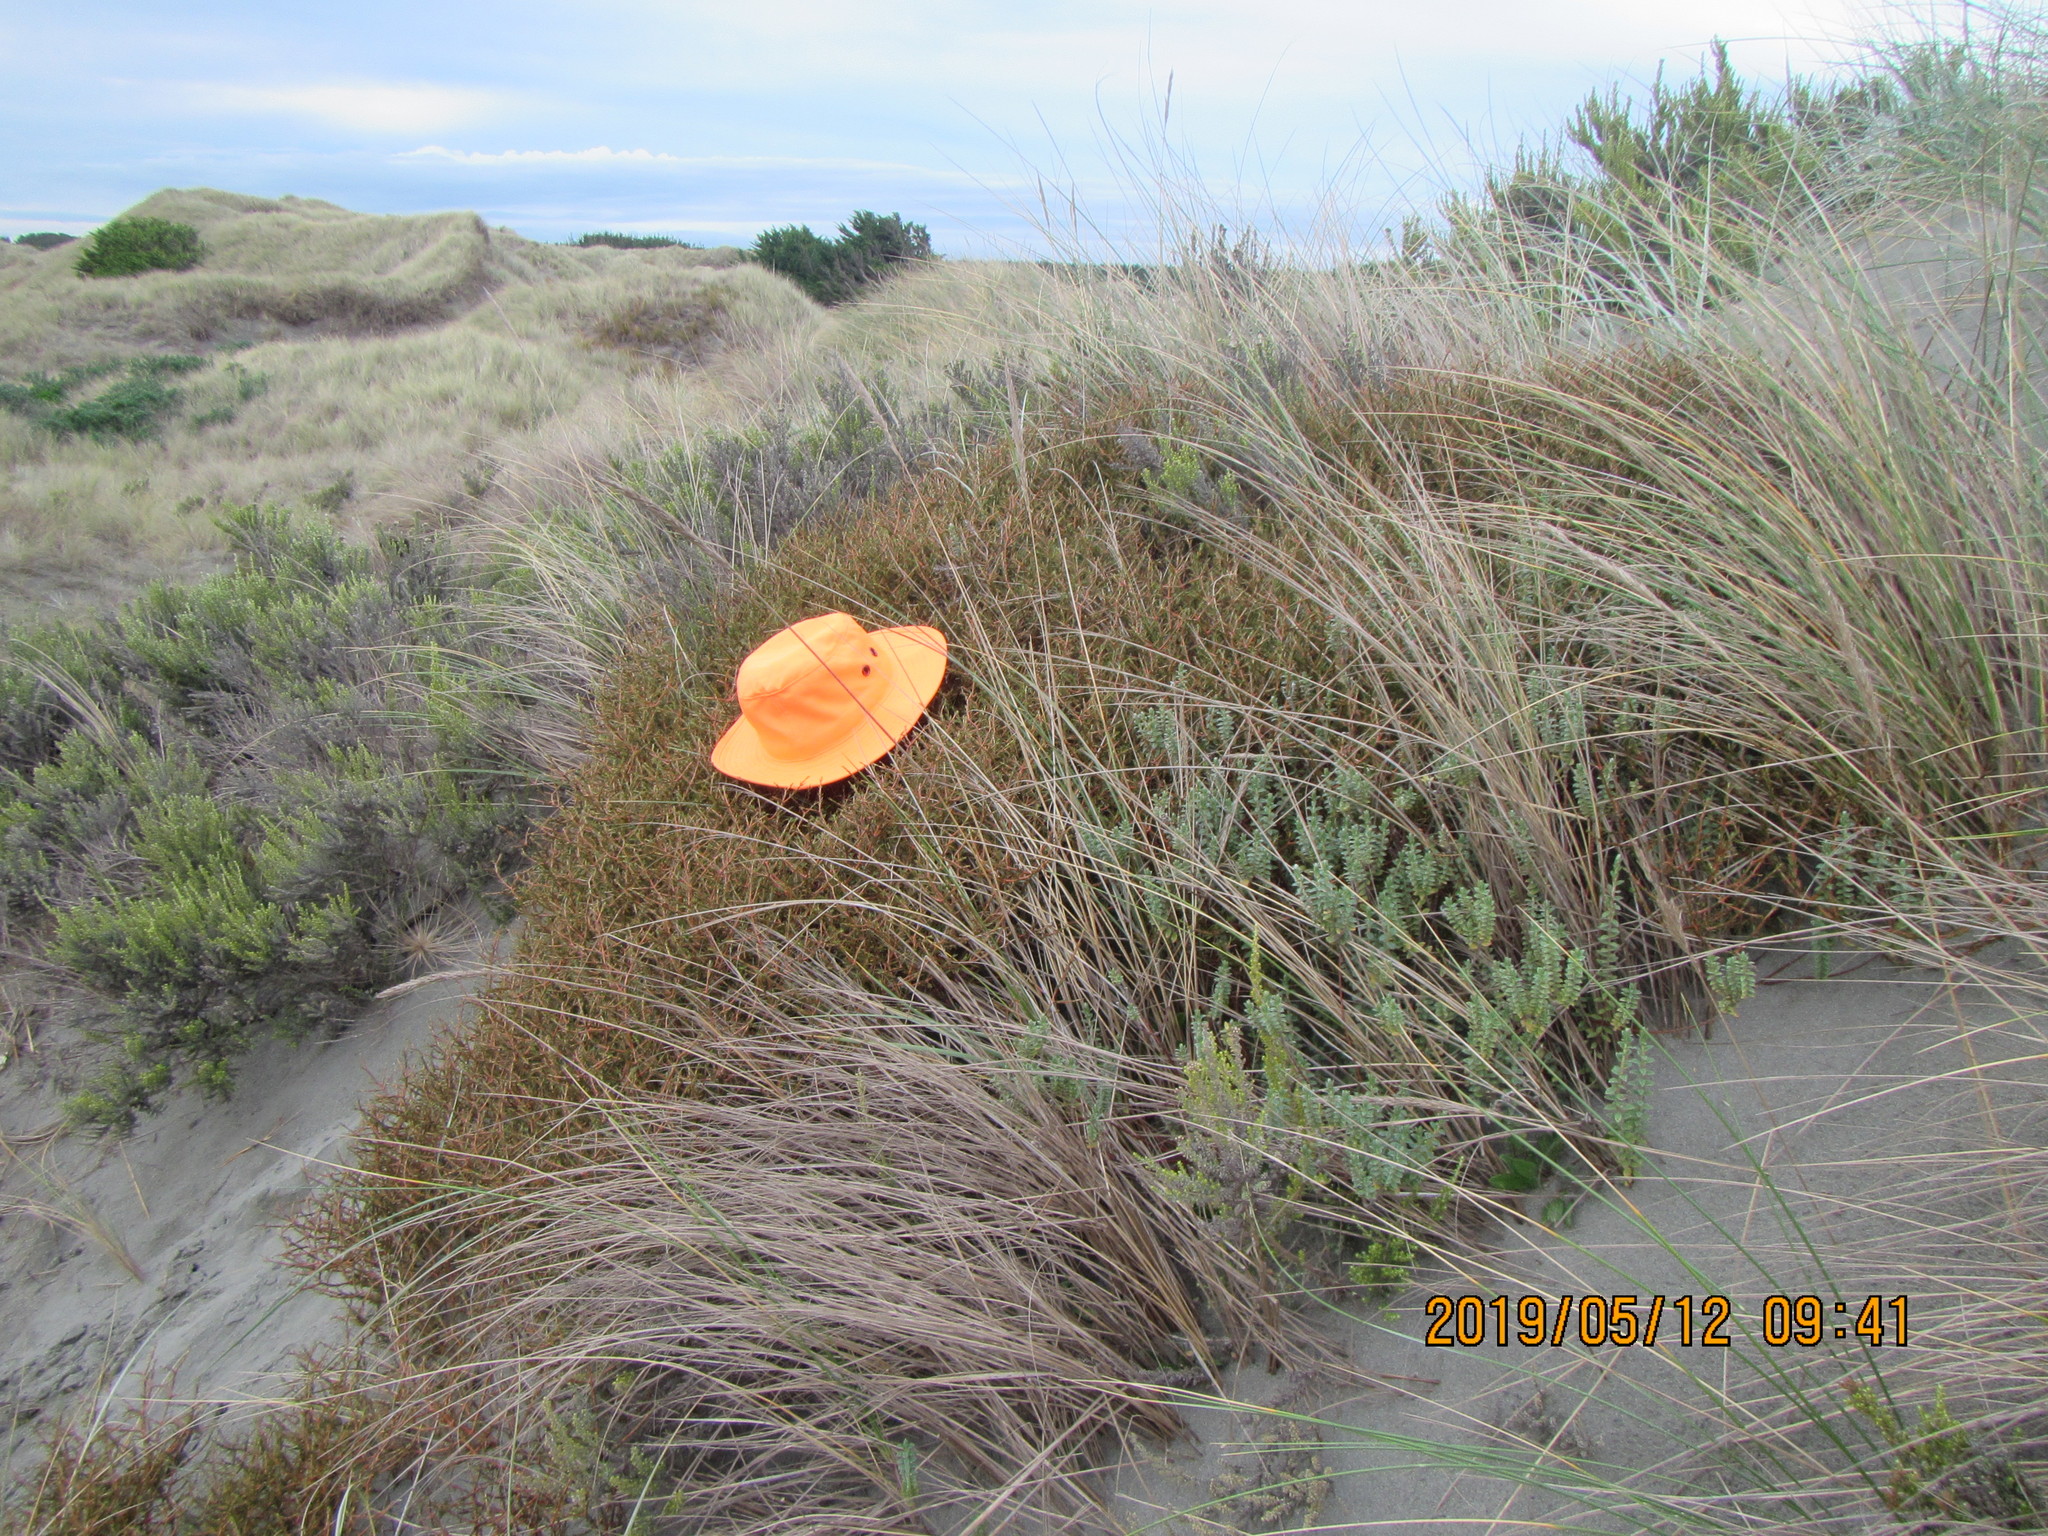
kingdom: Plantae
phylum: Tracheophyta
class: Magnoliopsida
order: Gentianales
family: Rubiaceae
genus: Coprosma
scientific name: Coprosma acerosa
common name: Sand coprosma
